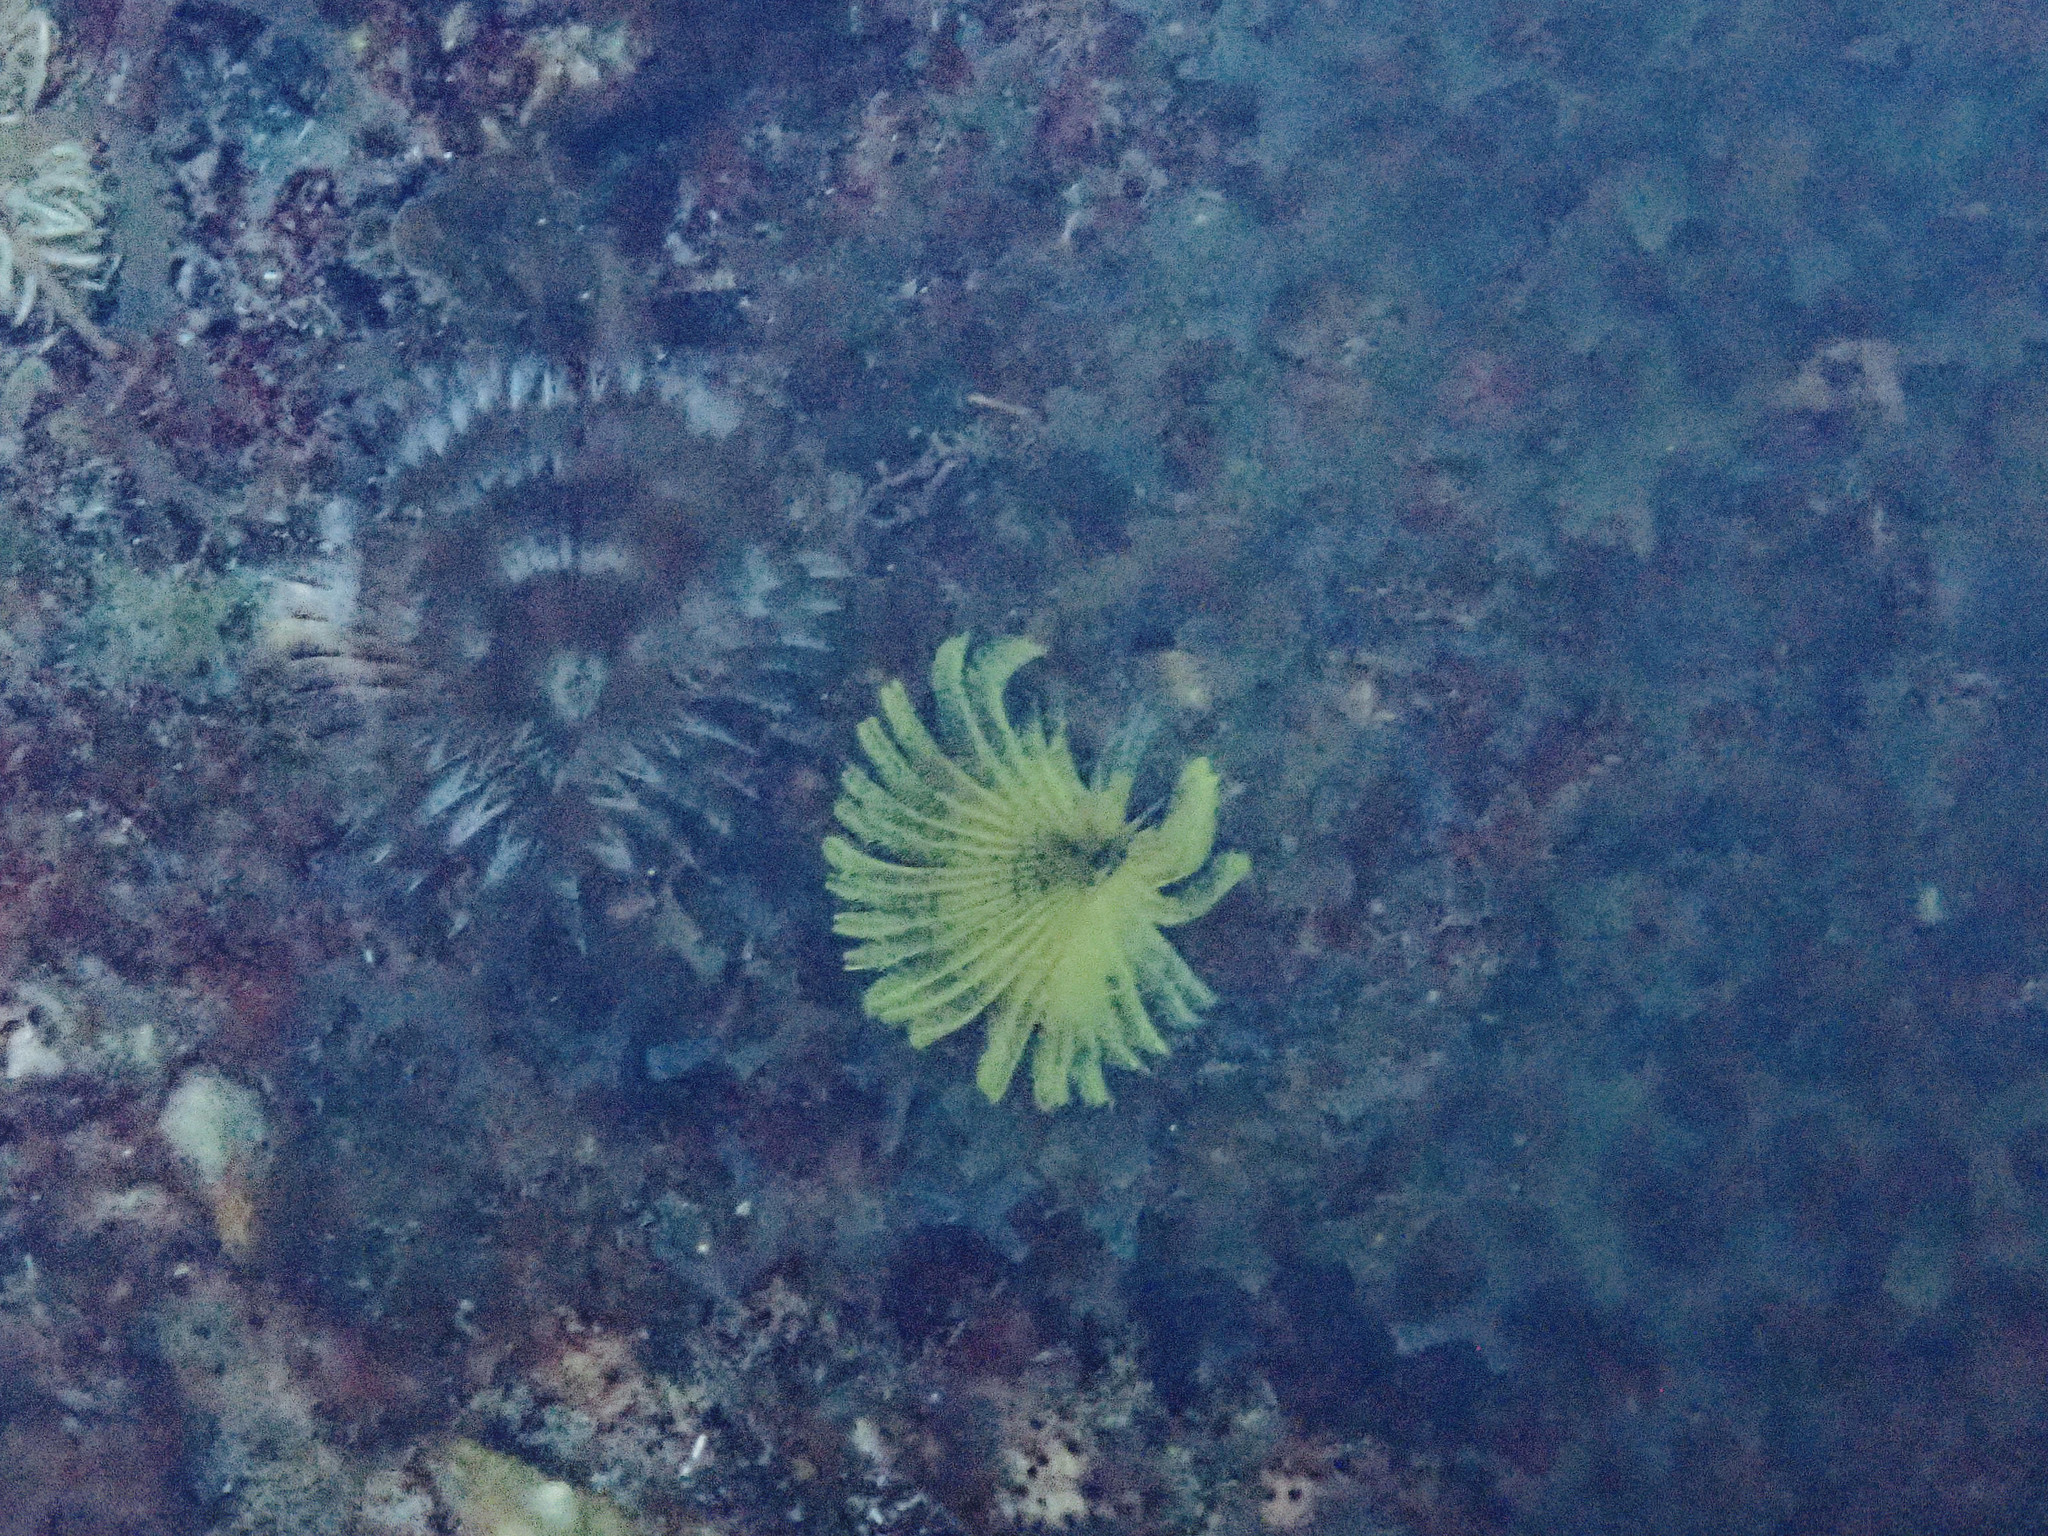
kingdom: Animalia
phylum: Annelida
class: Polychaeta
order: Sabellida
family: Sabellidae
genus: Notaulax
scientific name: Notaulax occidentalis
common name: Yellow fanworm
